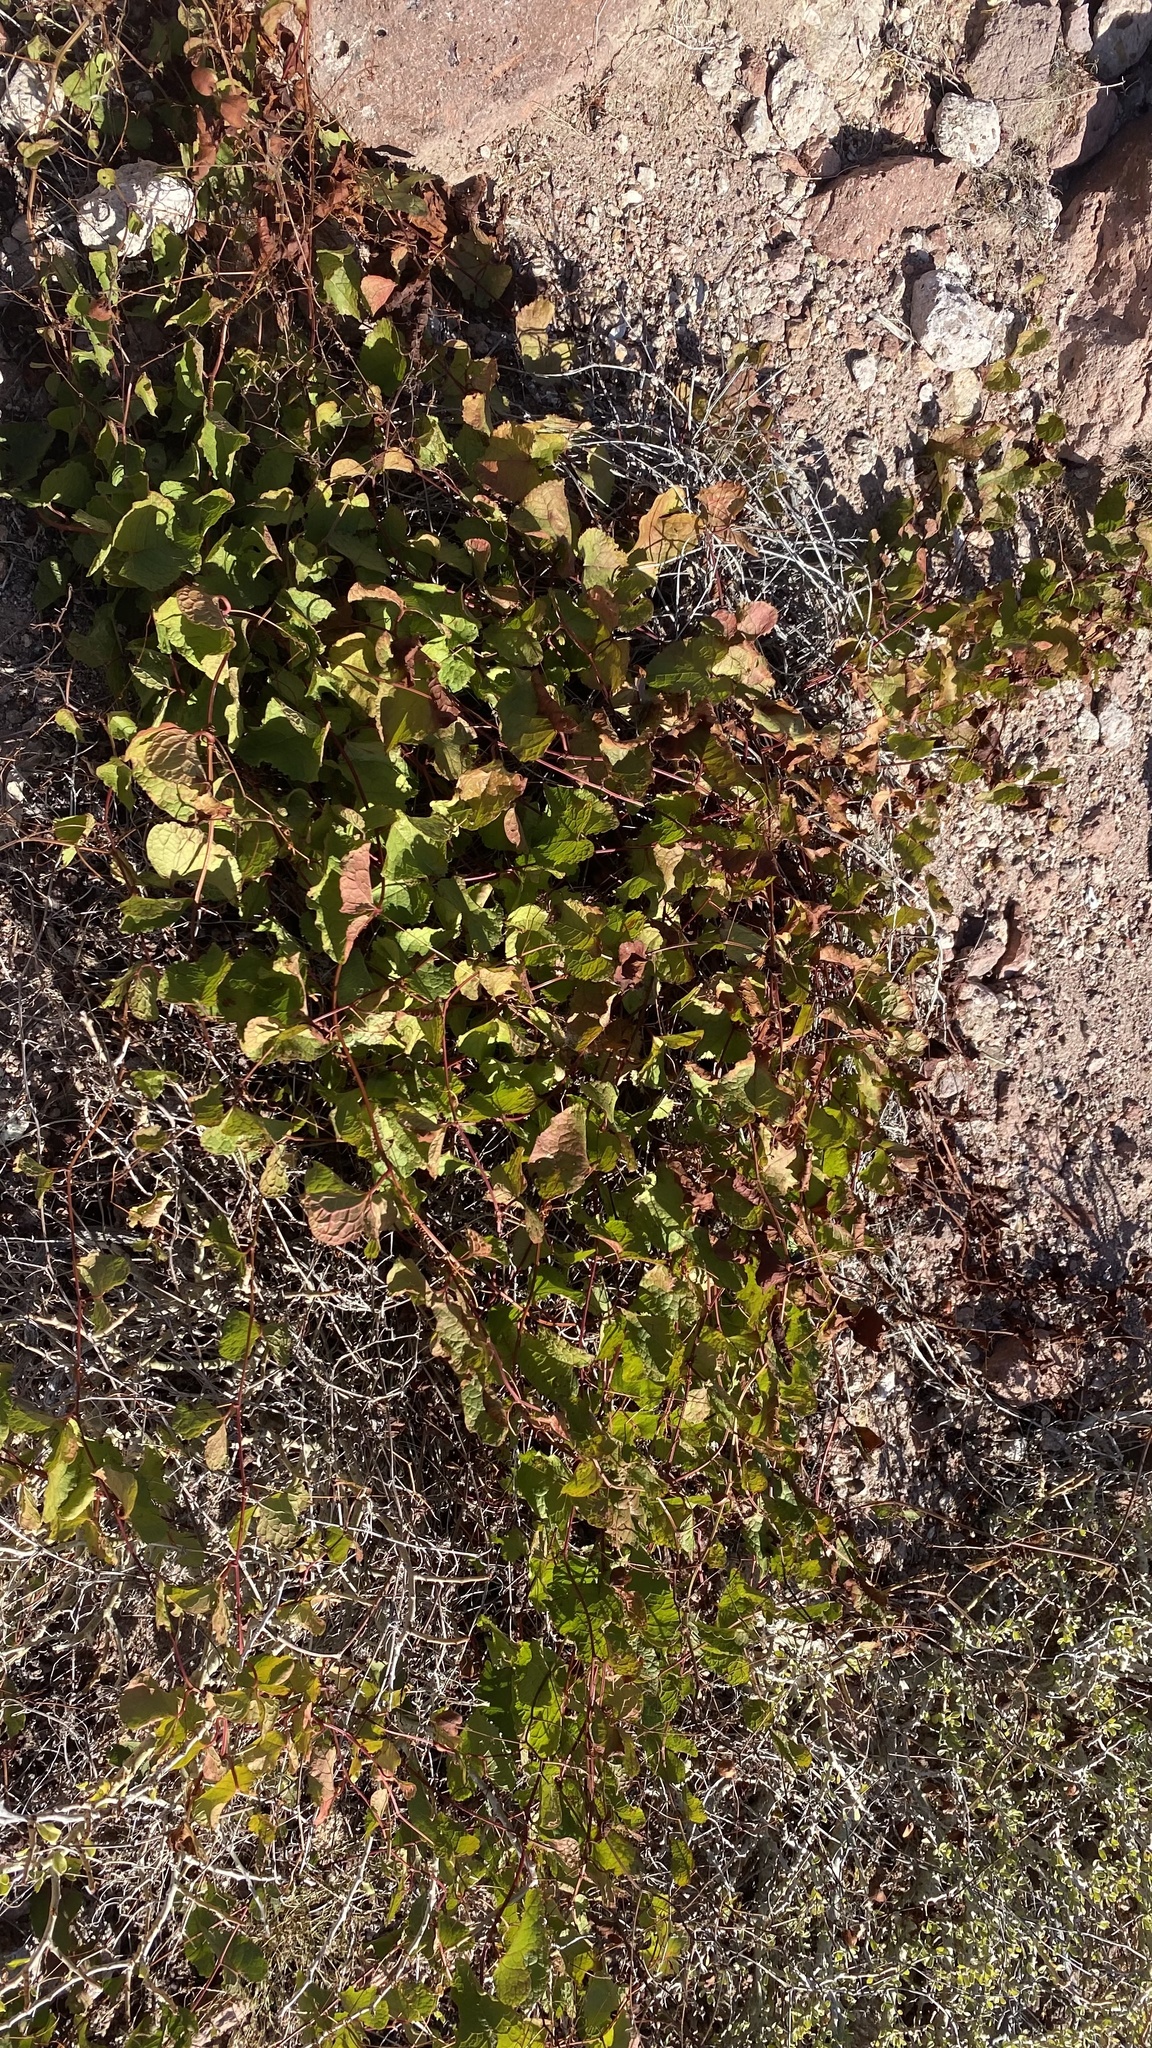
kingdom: Plantae
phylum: Tracheophyta
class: Magnoliopsida
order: Caryophyllales
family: Polygonaceae
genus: Antigonon
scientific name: Antigonon leptopus
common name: Coral vine
